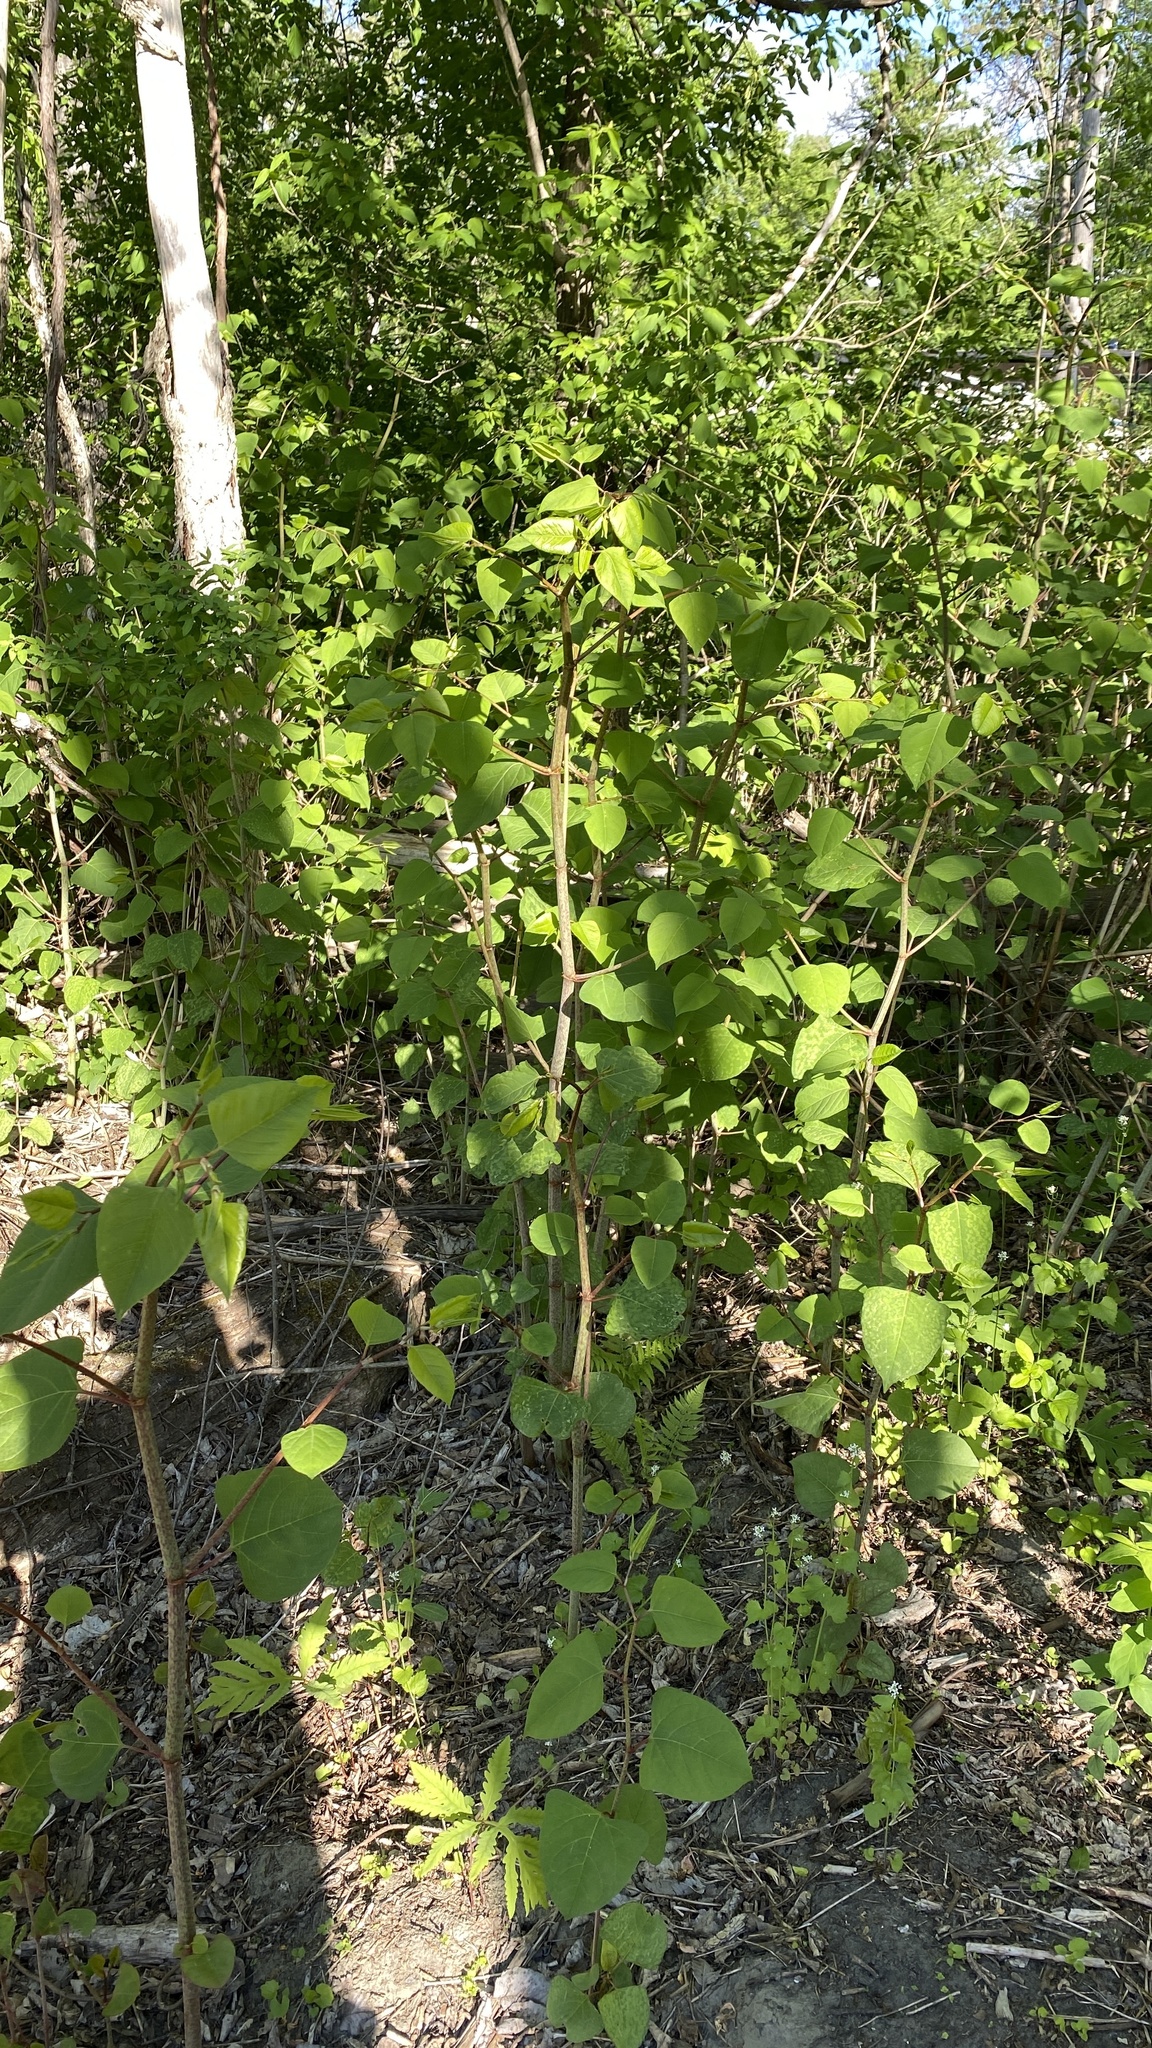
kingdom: Plantae
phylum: Tracheophyta
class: Magnoliopsida
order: Caryophyllales
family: Polygonaceae
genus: Reynoutria
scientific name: Reynoutria japonica
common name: Japanese knotweed
